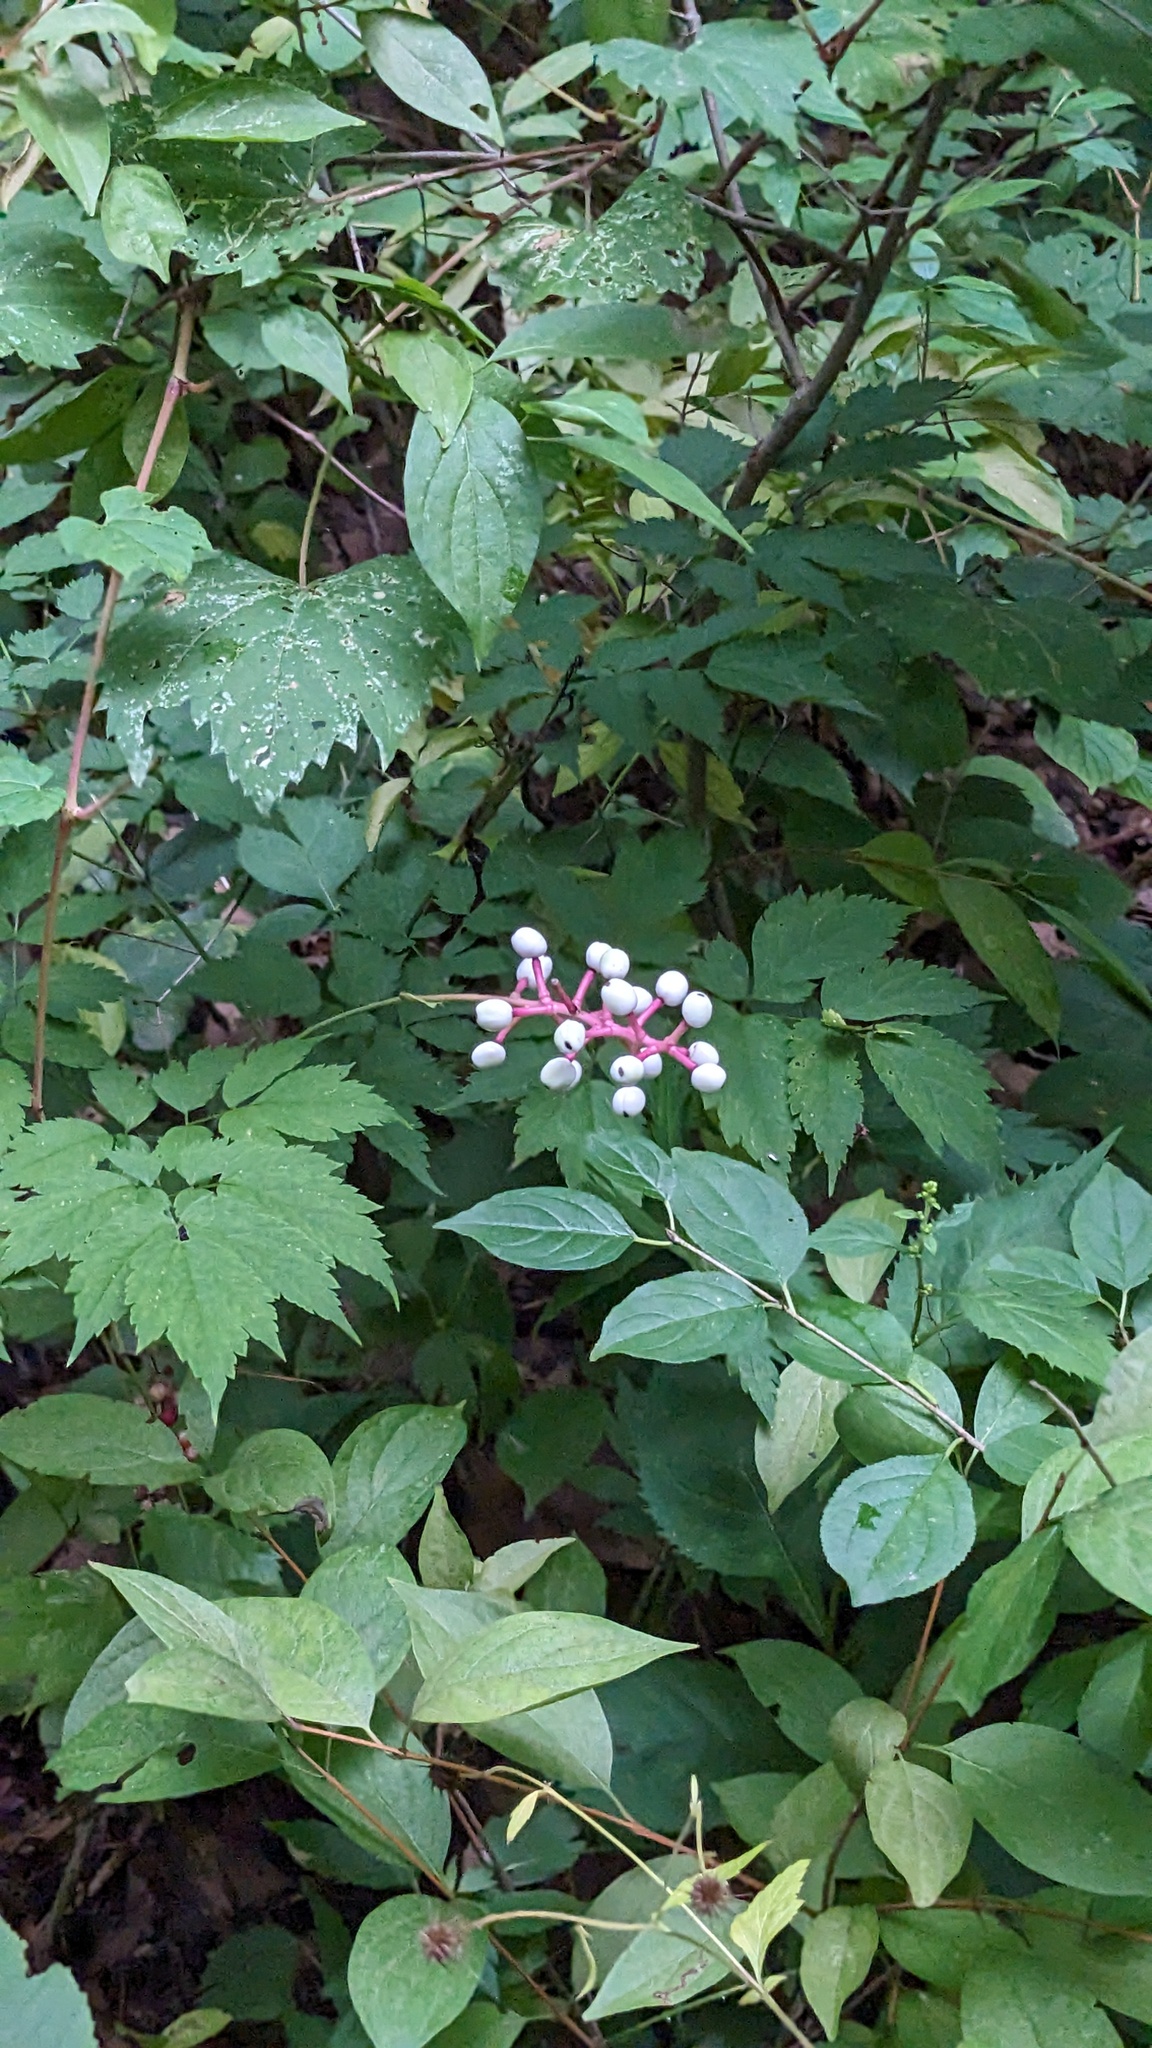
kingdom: Plantae
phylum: Tracheophyta
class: Magnoliopsida
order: Ranunculales
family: Ranunculaceae
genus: Actaea
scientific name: Actaea pachypoda
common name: Doll's-eyes
